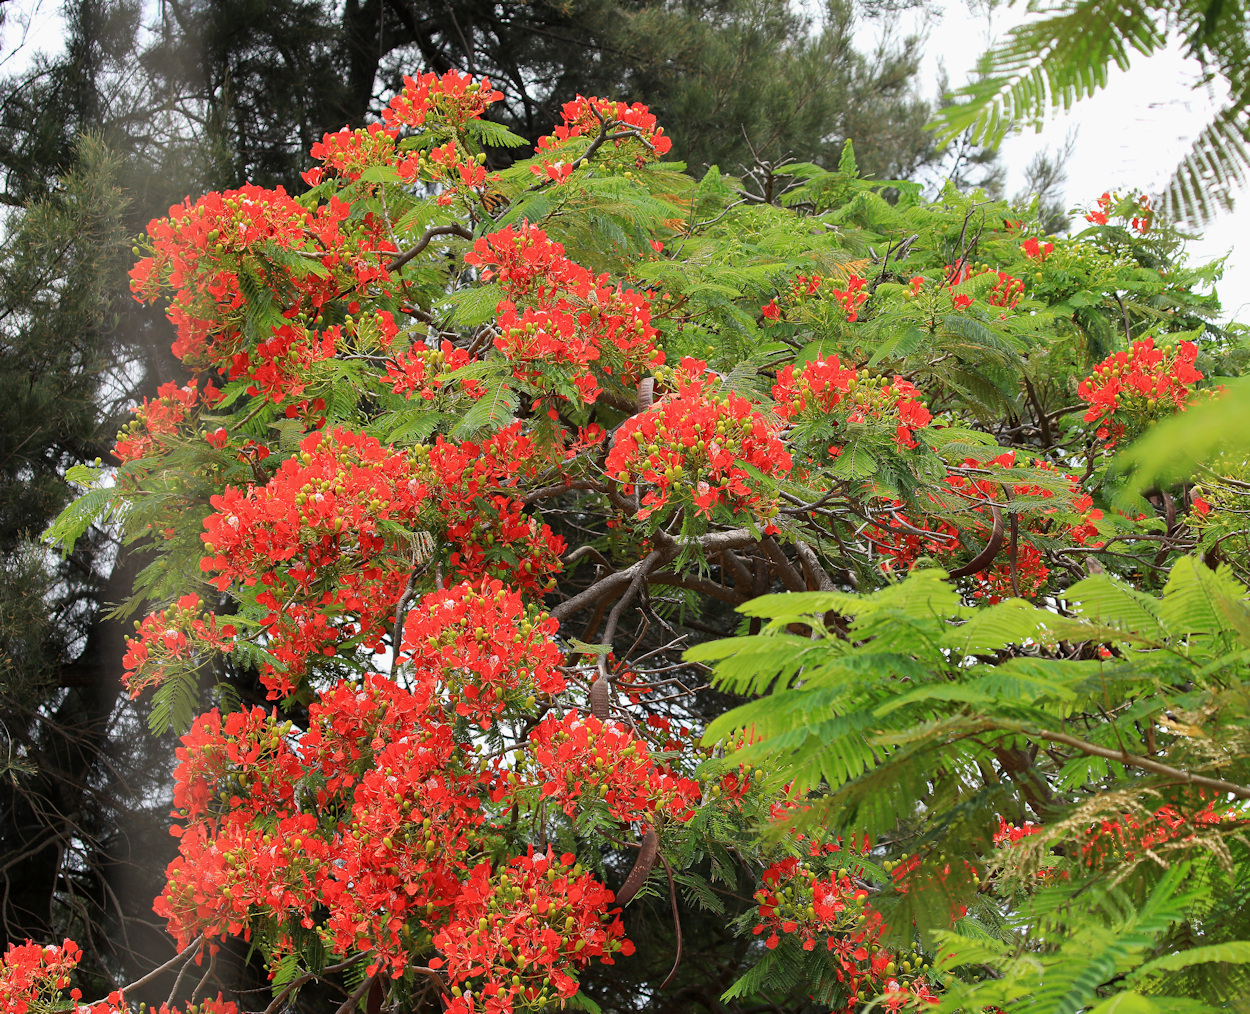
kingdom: Plantae
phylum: Tracheophyta
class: Magnoliopsida
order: Fabales
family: Fabaceae
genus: Delonix
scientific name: Delonix regia
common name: Royal poinciana
